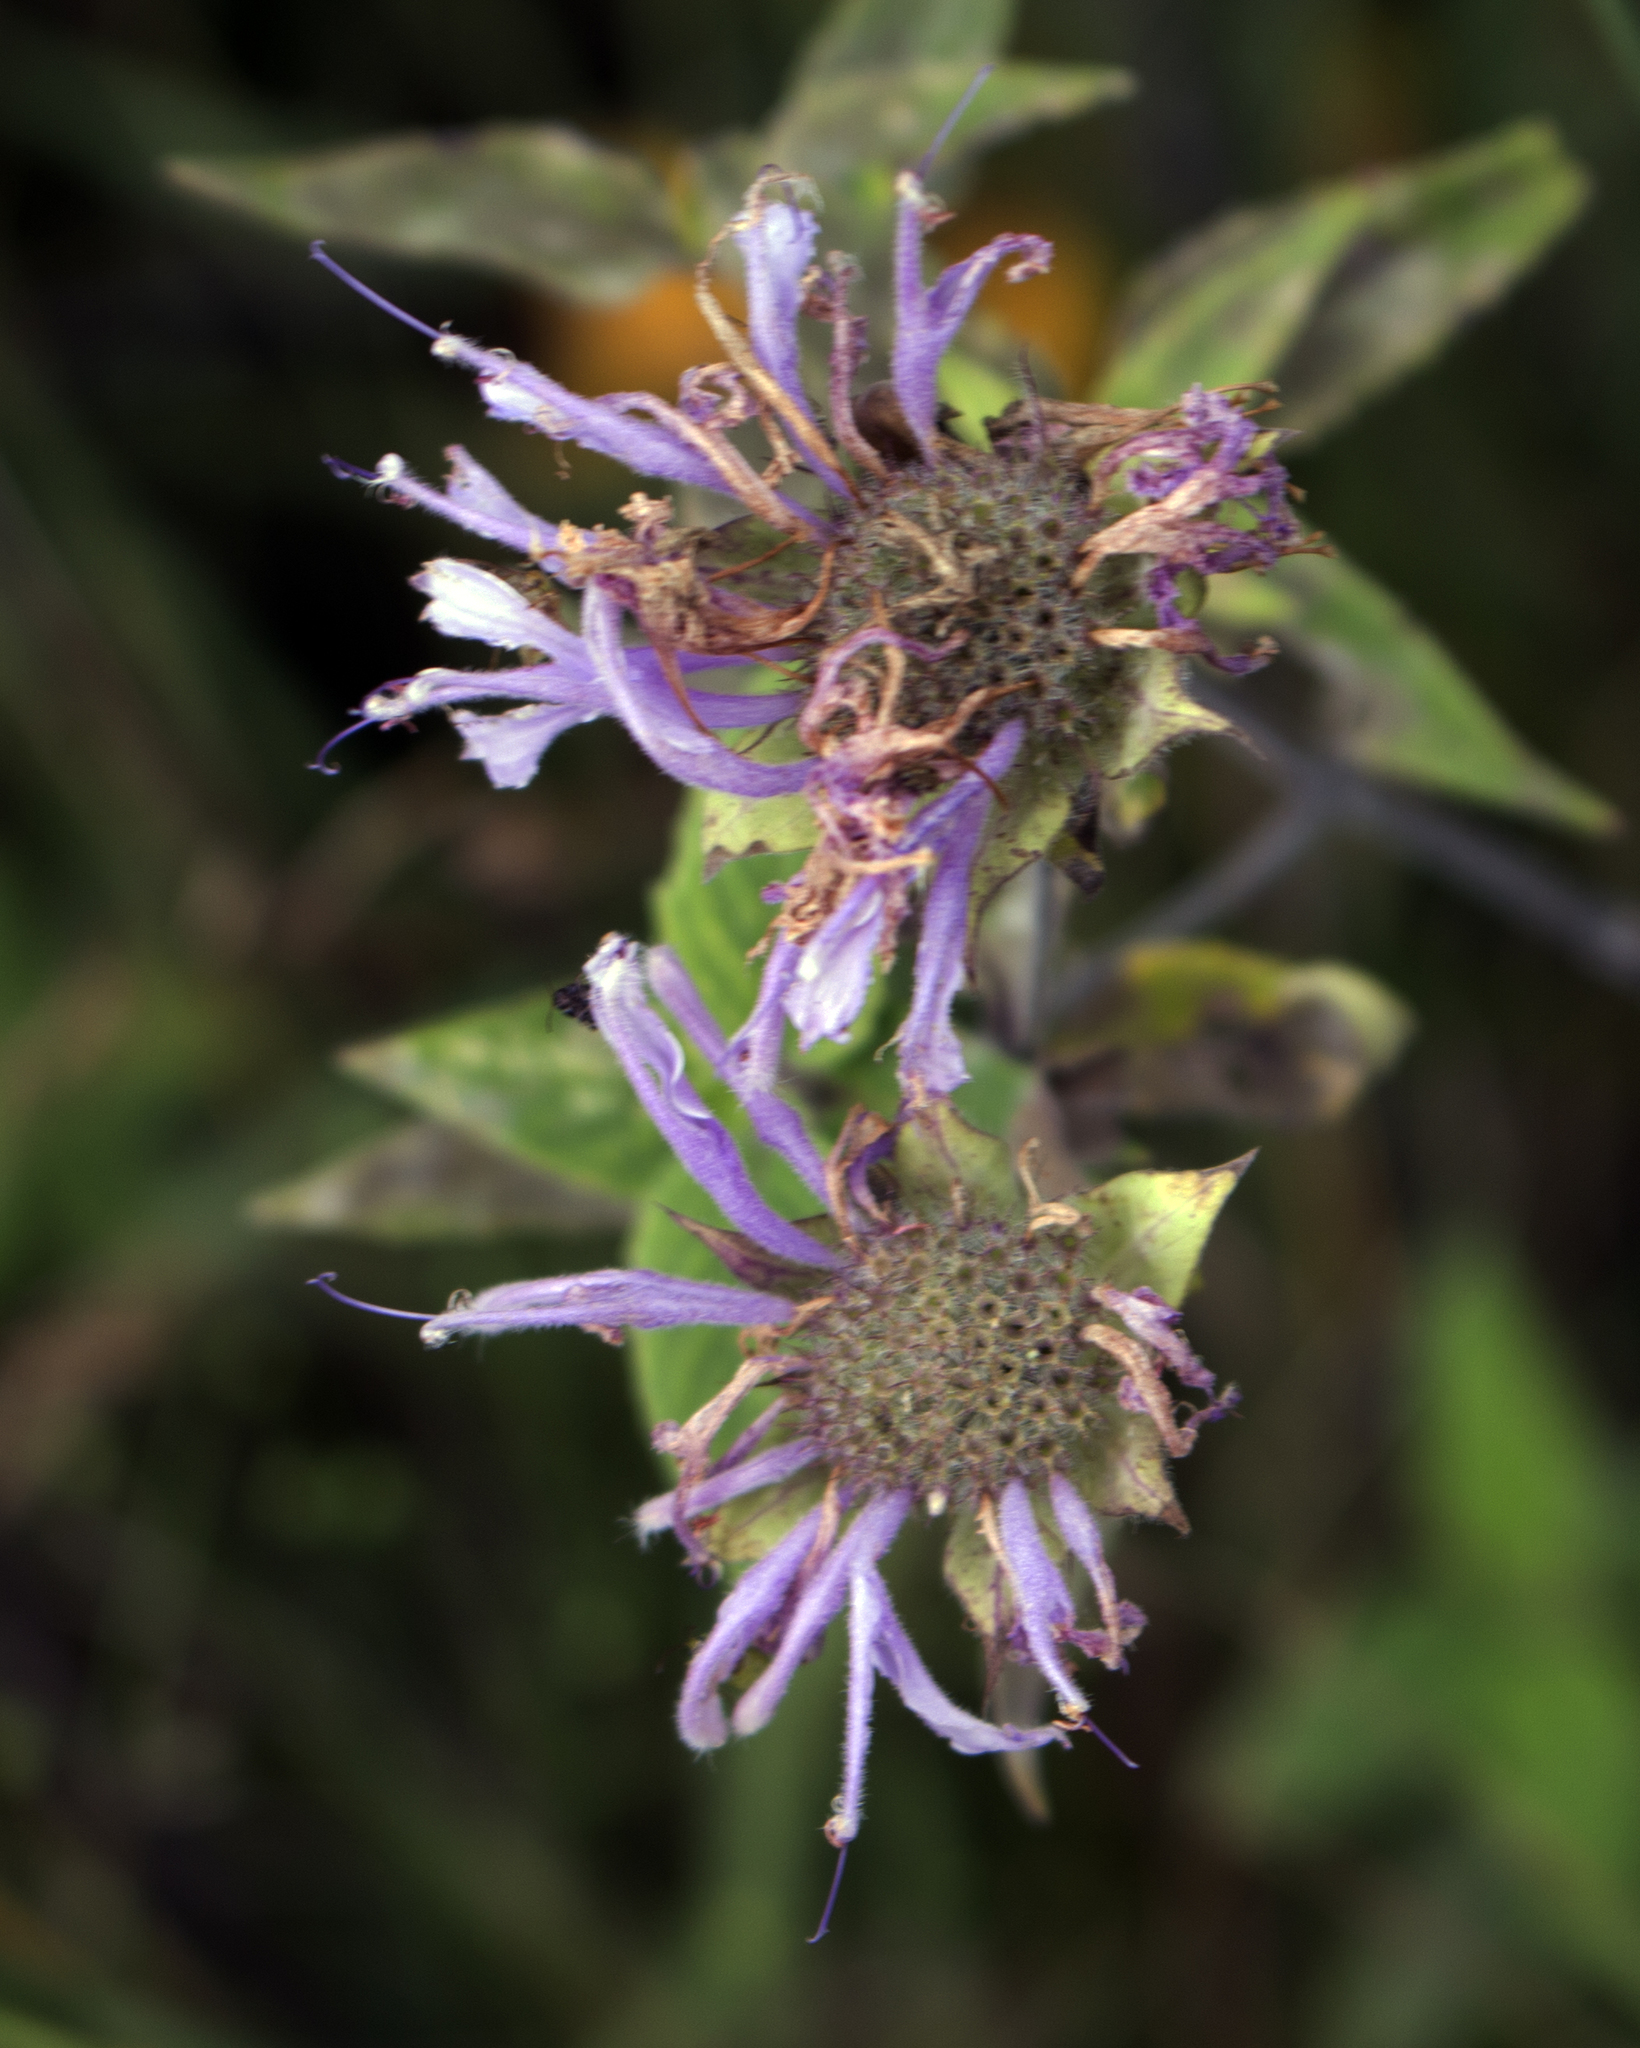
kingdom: Plantae
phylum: Tracheophyta
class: Magnoliopsida
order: Lamiales
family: Lamiaceae
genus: Monarda
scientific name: Monarda fistulosa
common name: Purple beebalm
